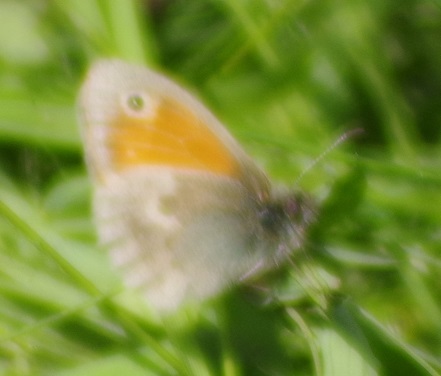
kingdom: Animalia
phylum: Arthropoda
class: Insecta
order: Lepidoptera
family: Nymphalidae
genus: Coenonympha
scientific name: Coenonympha pamphilus
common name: Small heath
